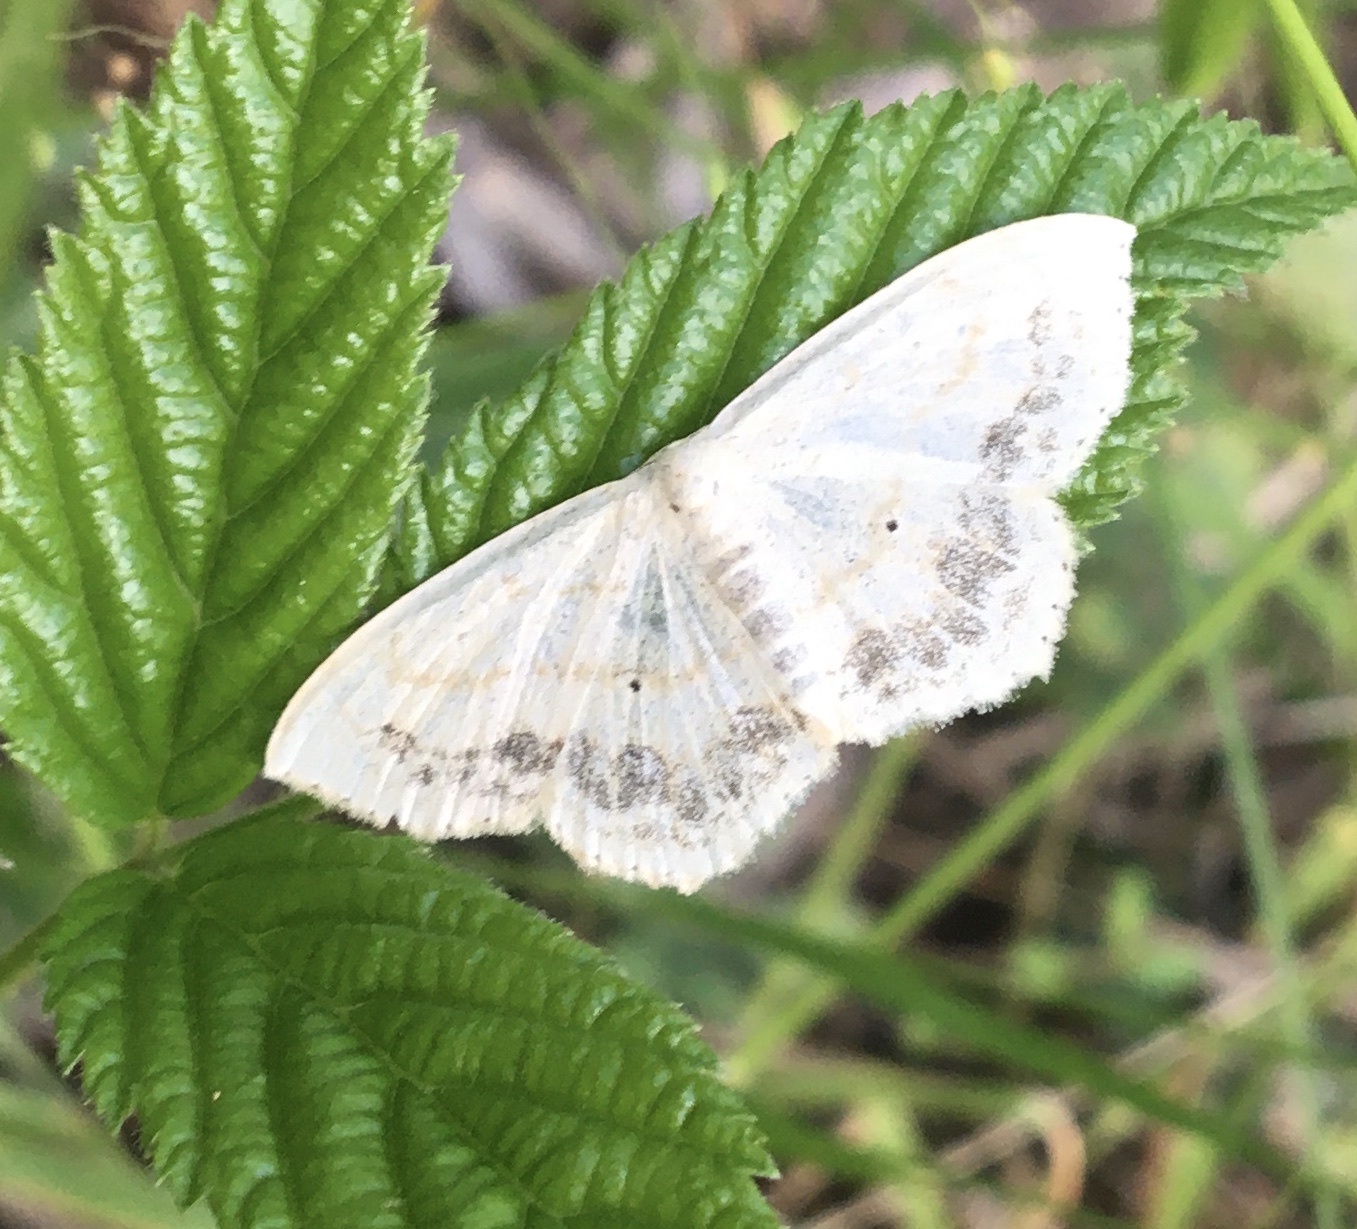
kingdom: Animalia
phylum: Arthropoda
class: Insecta
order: Lepidoptera
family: Geometridae
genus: Scopula
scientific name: Scopula limboundata
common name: Large lace border
